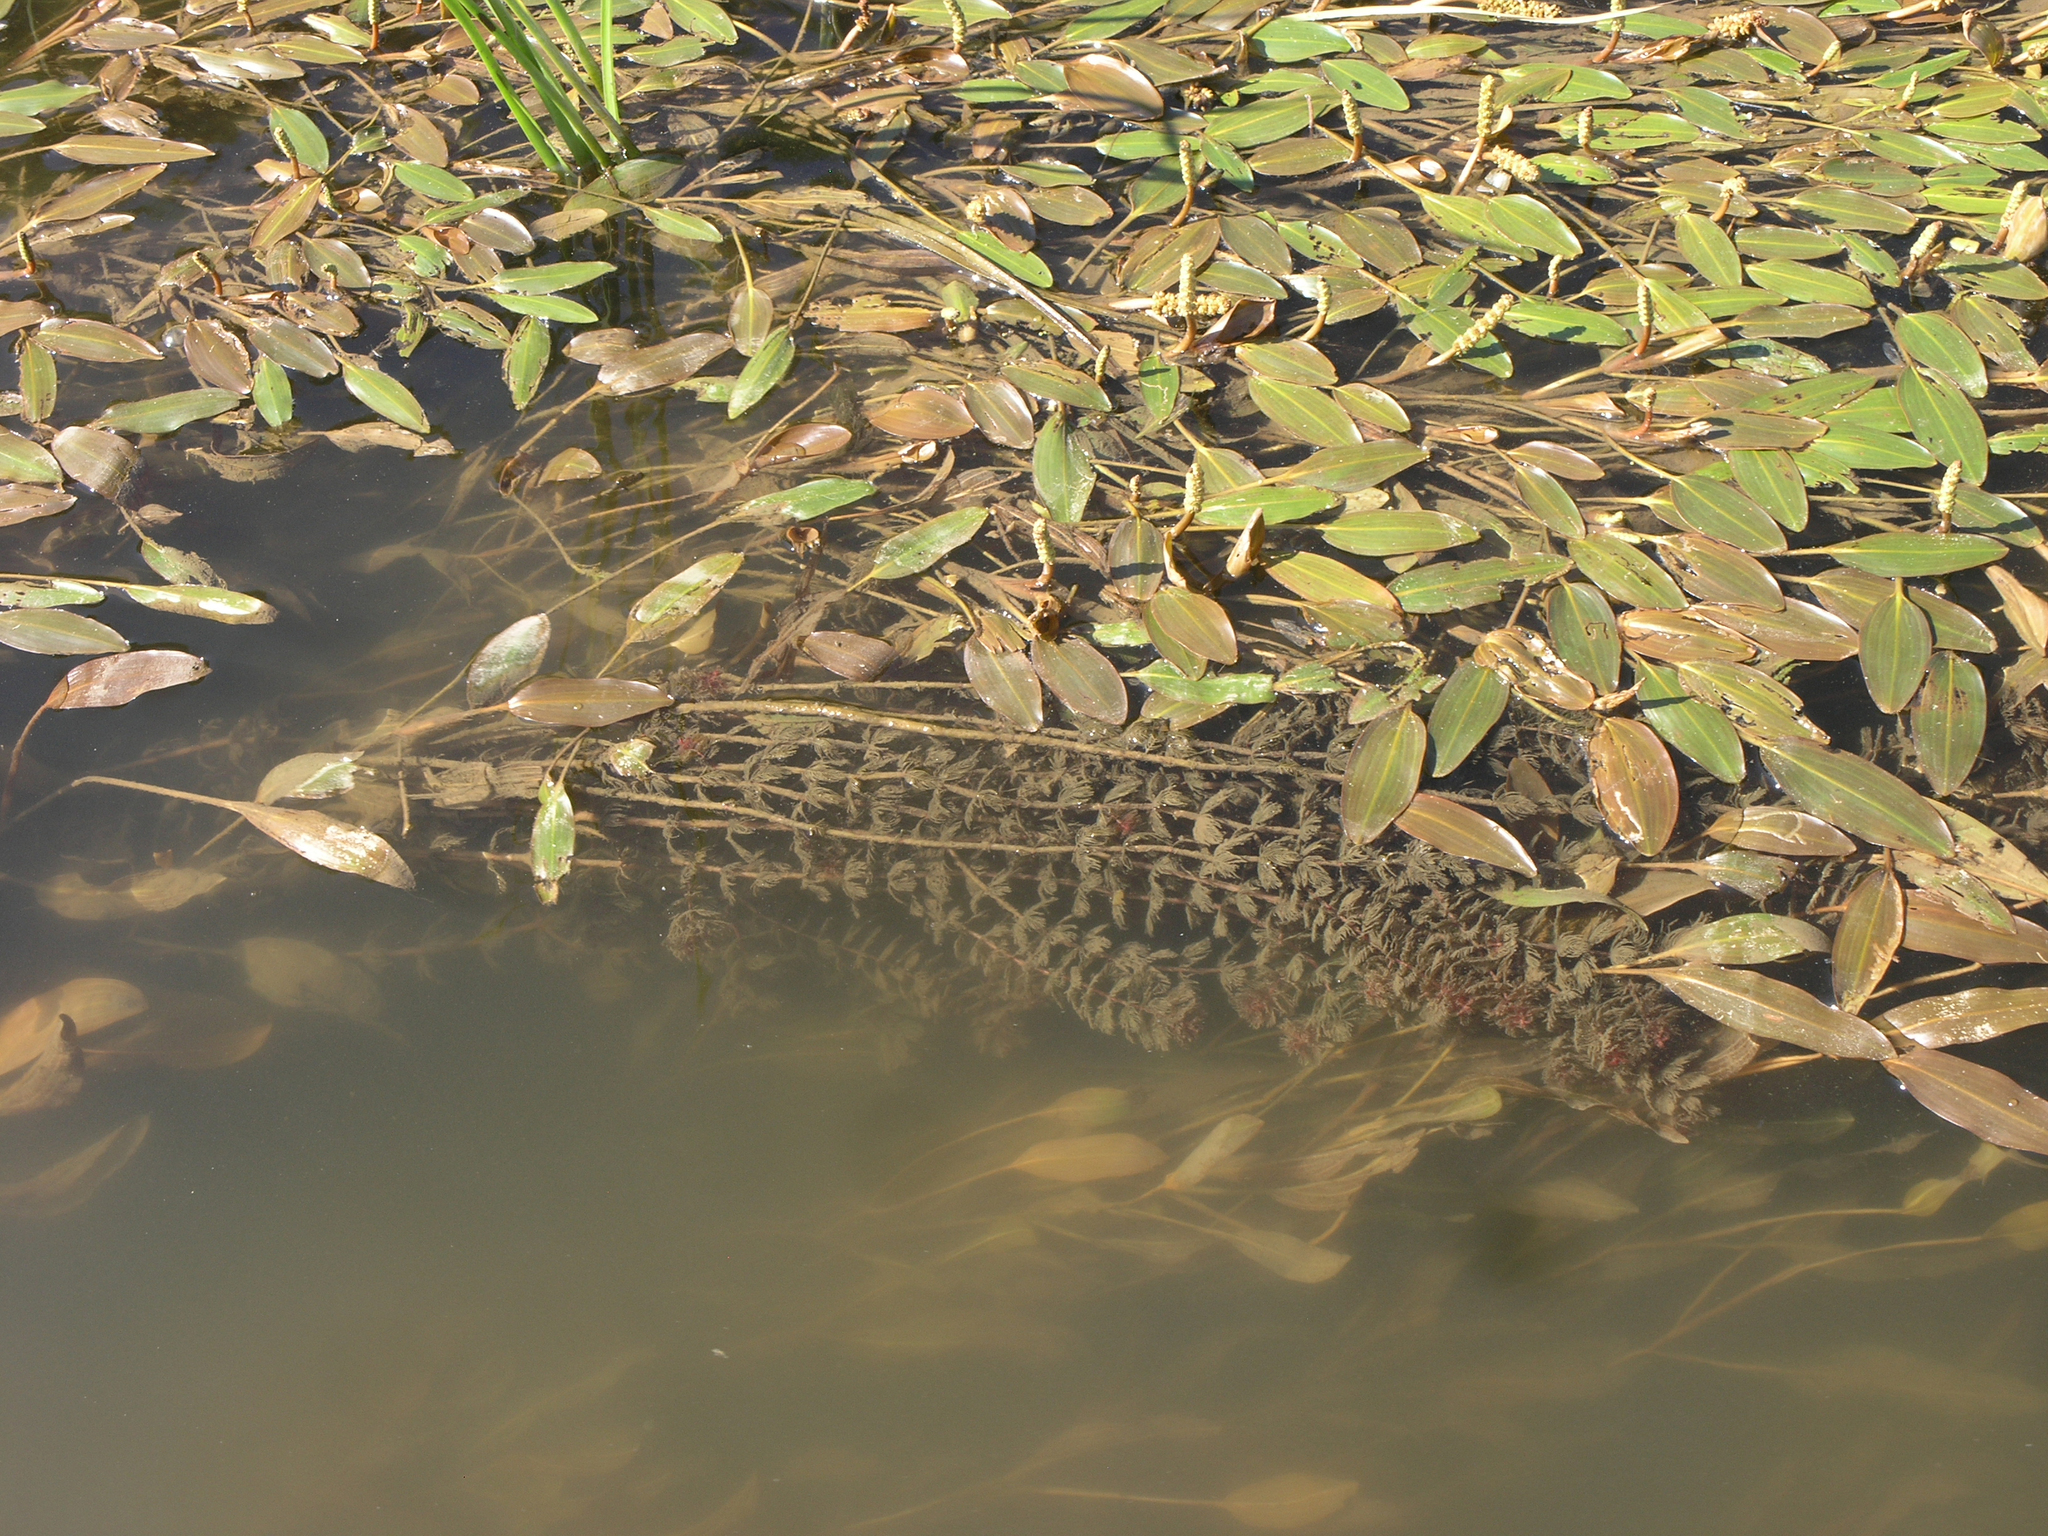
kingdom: Plantae
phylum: Tracheophyta
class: Liliopsida
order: Alismatales
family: Potamogetonaceae
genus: Potamogeton
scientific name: Potamogeton nodosus
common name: Loddon pondweed
